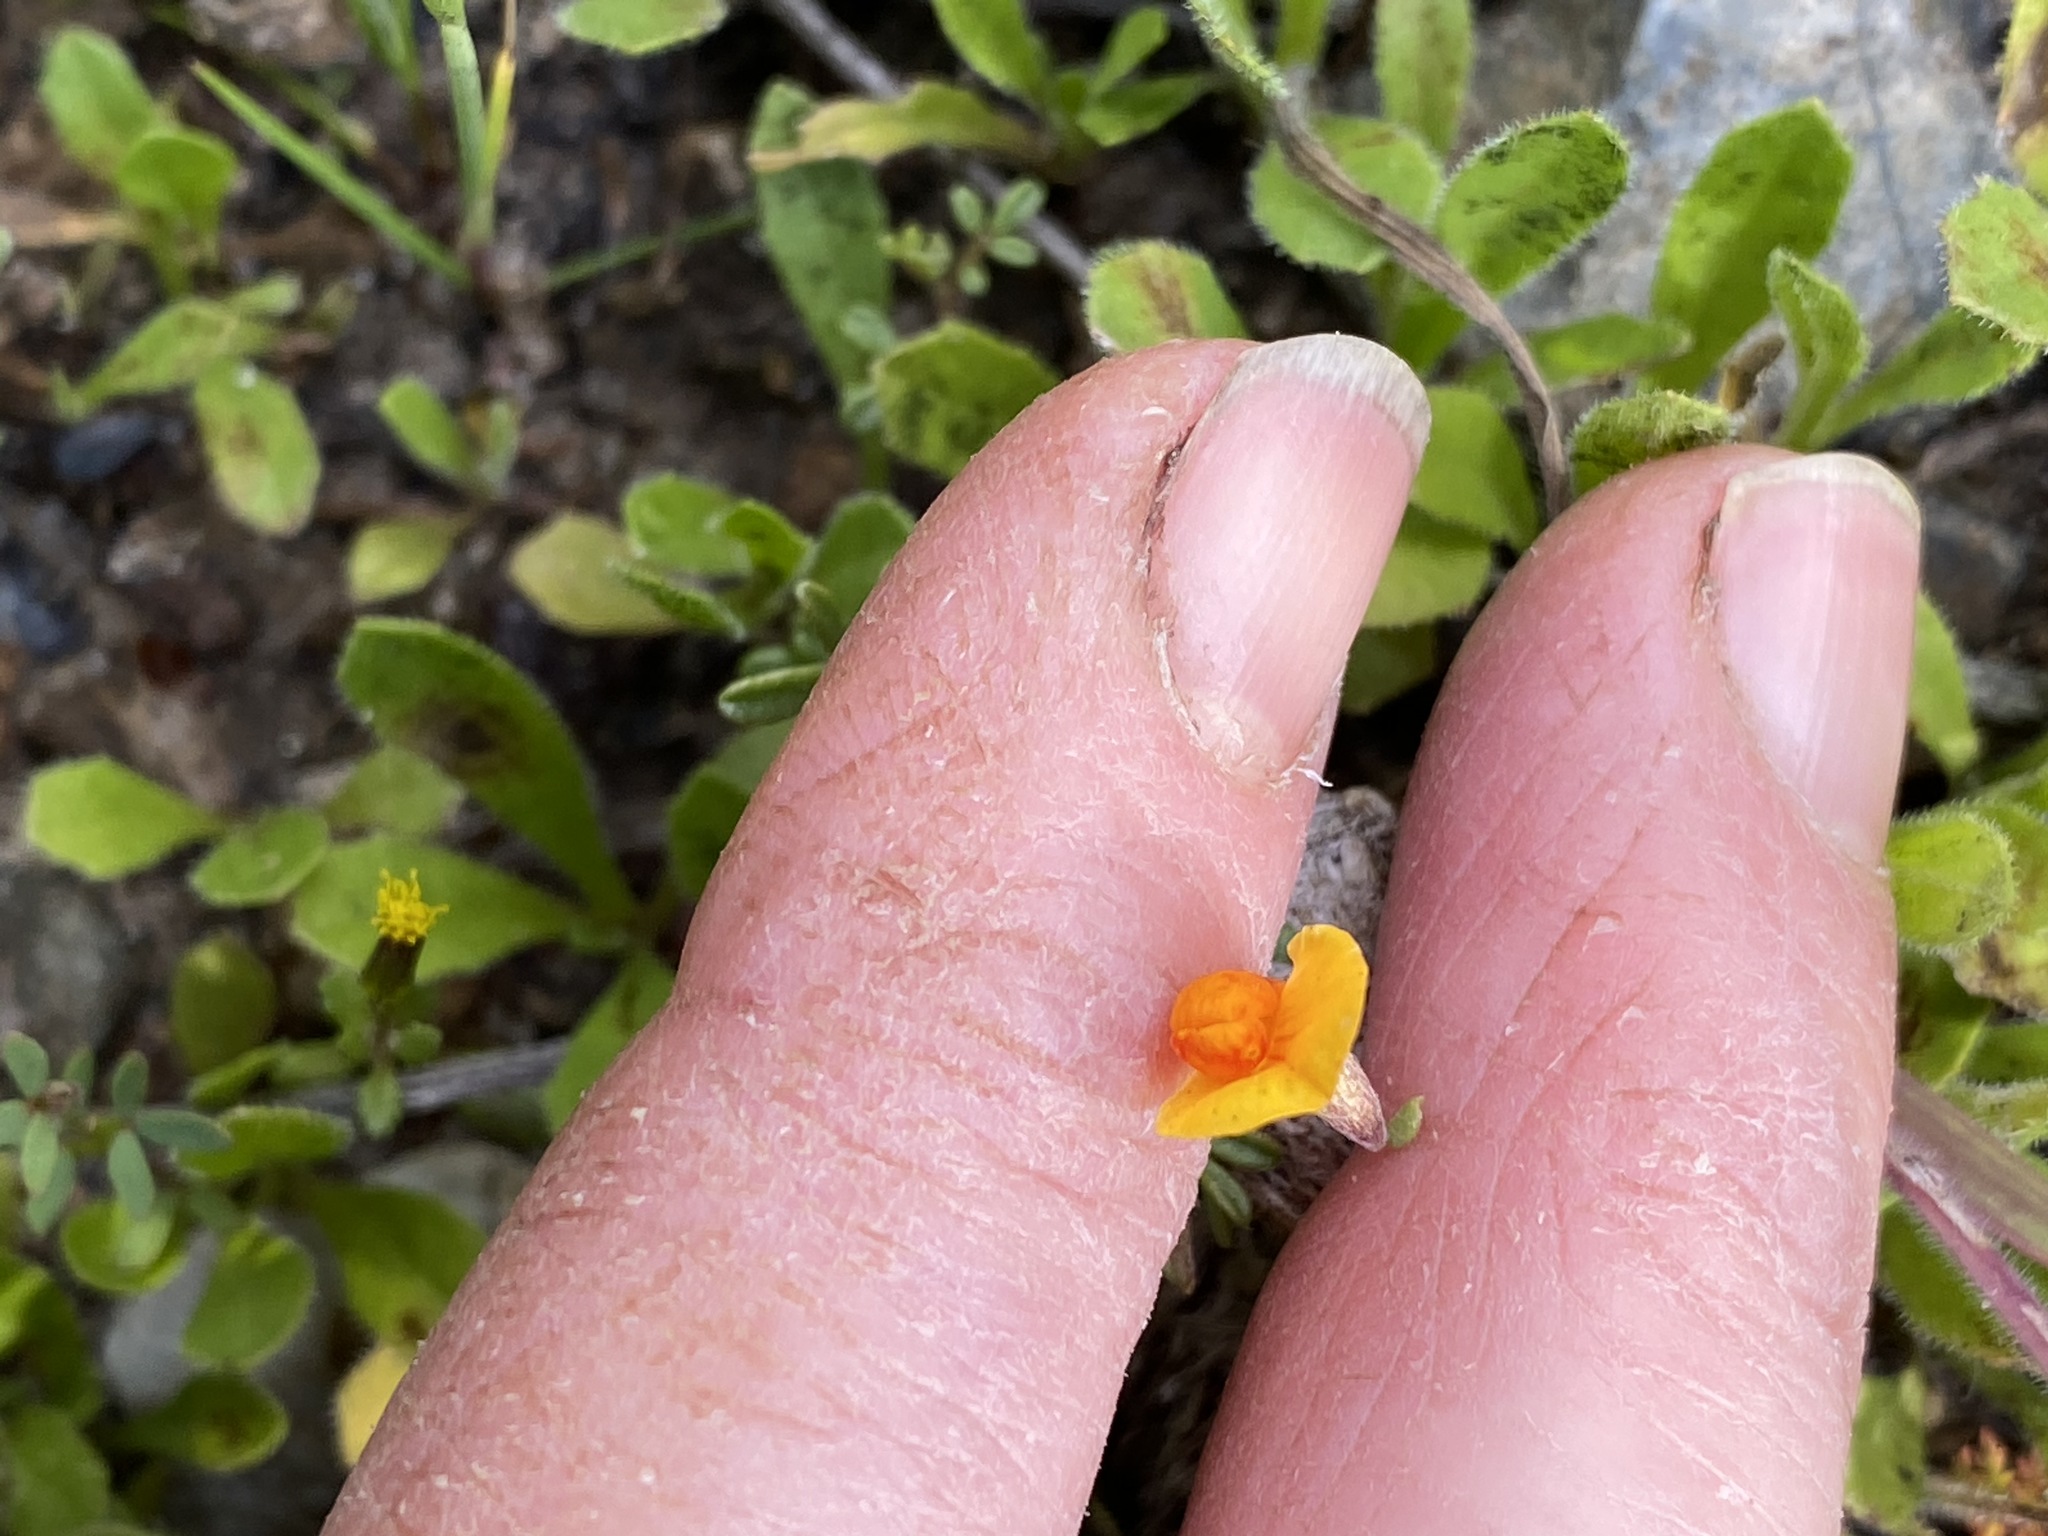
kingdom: Plantae
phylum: Tracheophyta
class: Magnoliopsida
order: Fabales
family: Fabaceae
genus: Acmispon
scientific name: Acmispon strigosus
